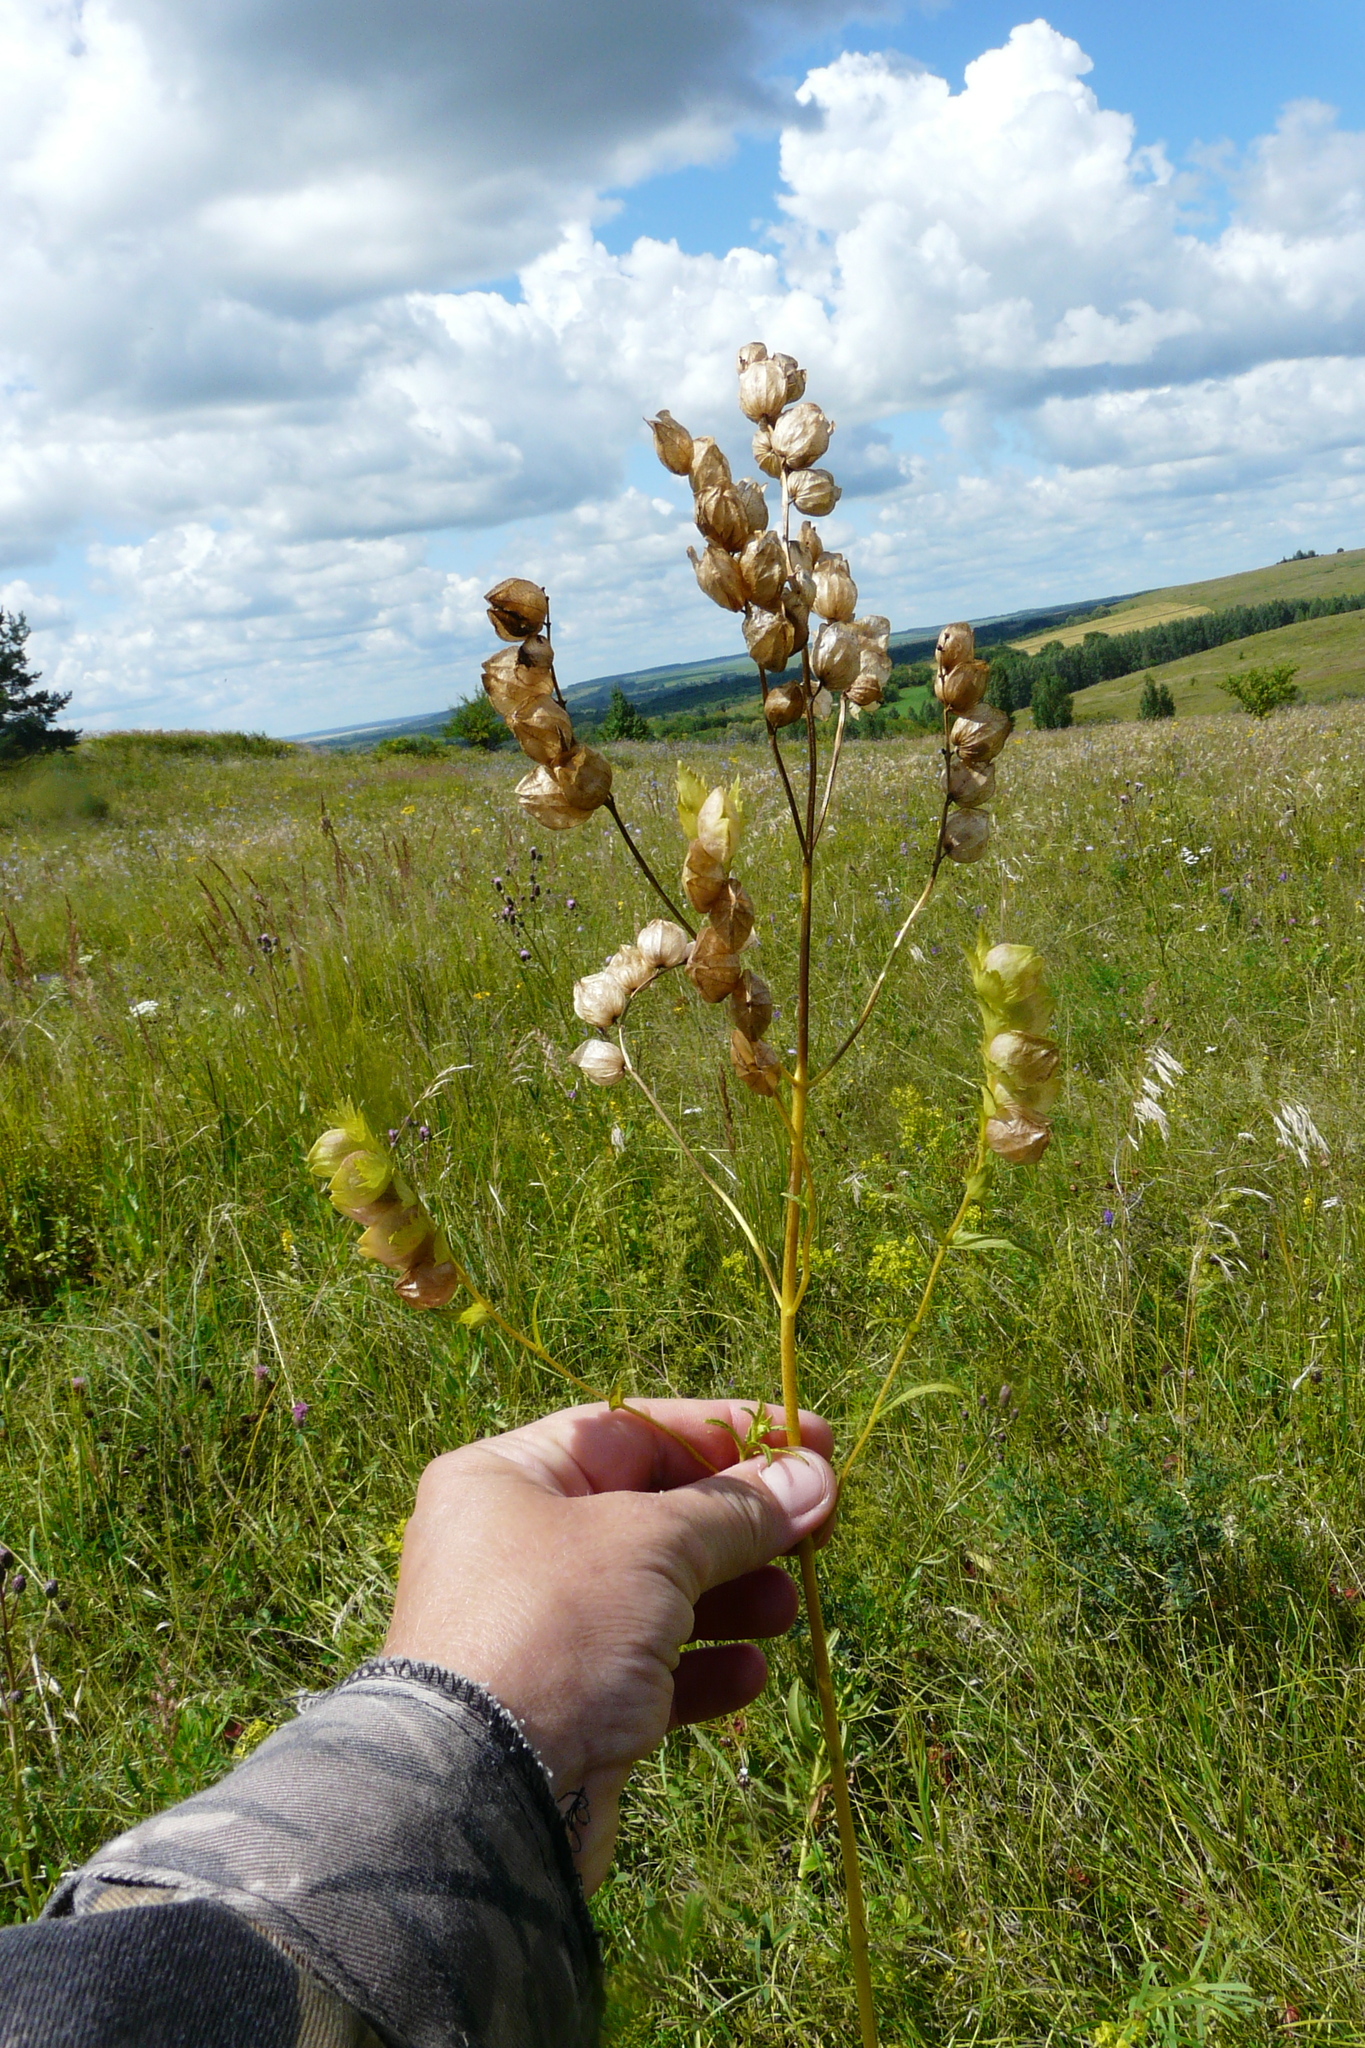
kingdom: Plantae
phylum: Tracheophyta
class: Magnoliopsida
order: Lamiales
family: Orobanchaceae
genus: Rhinanthus
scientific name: Rhinanthus serotinus
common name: Late-flowering yellow rattle
